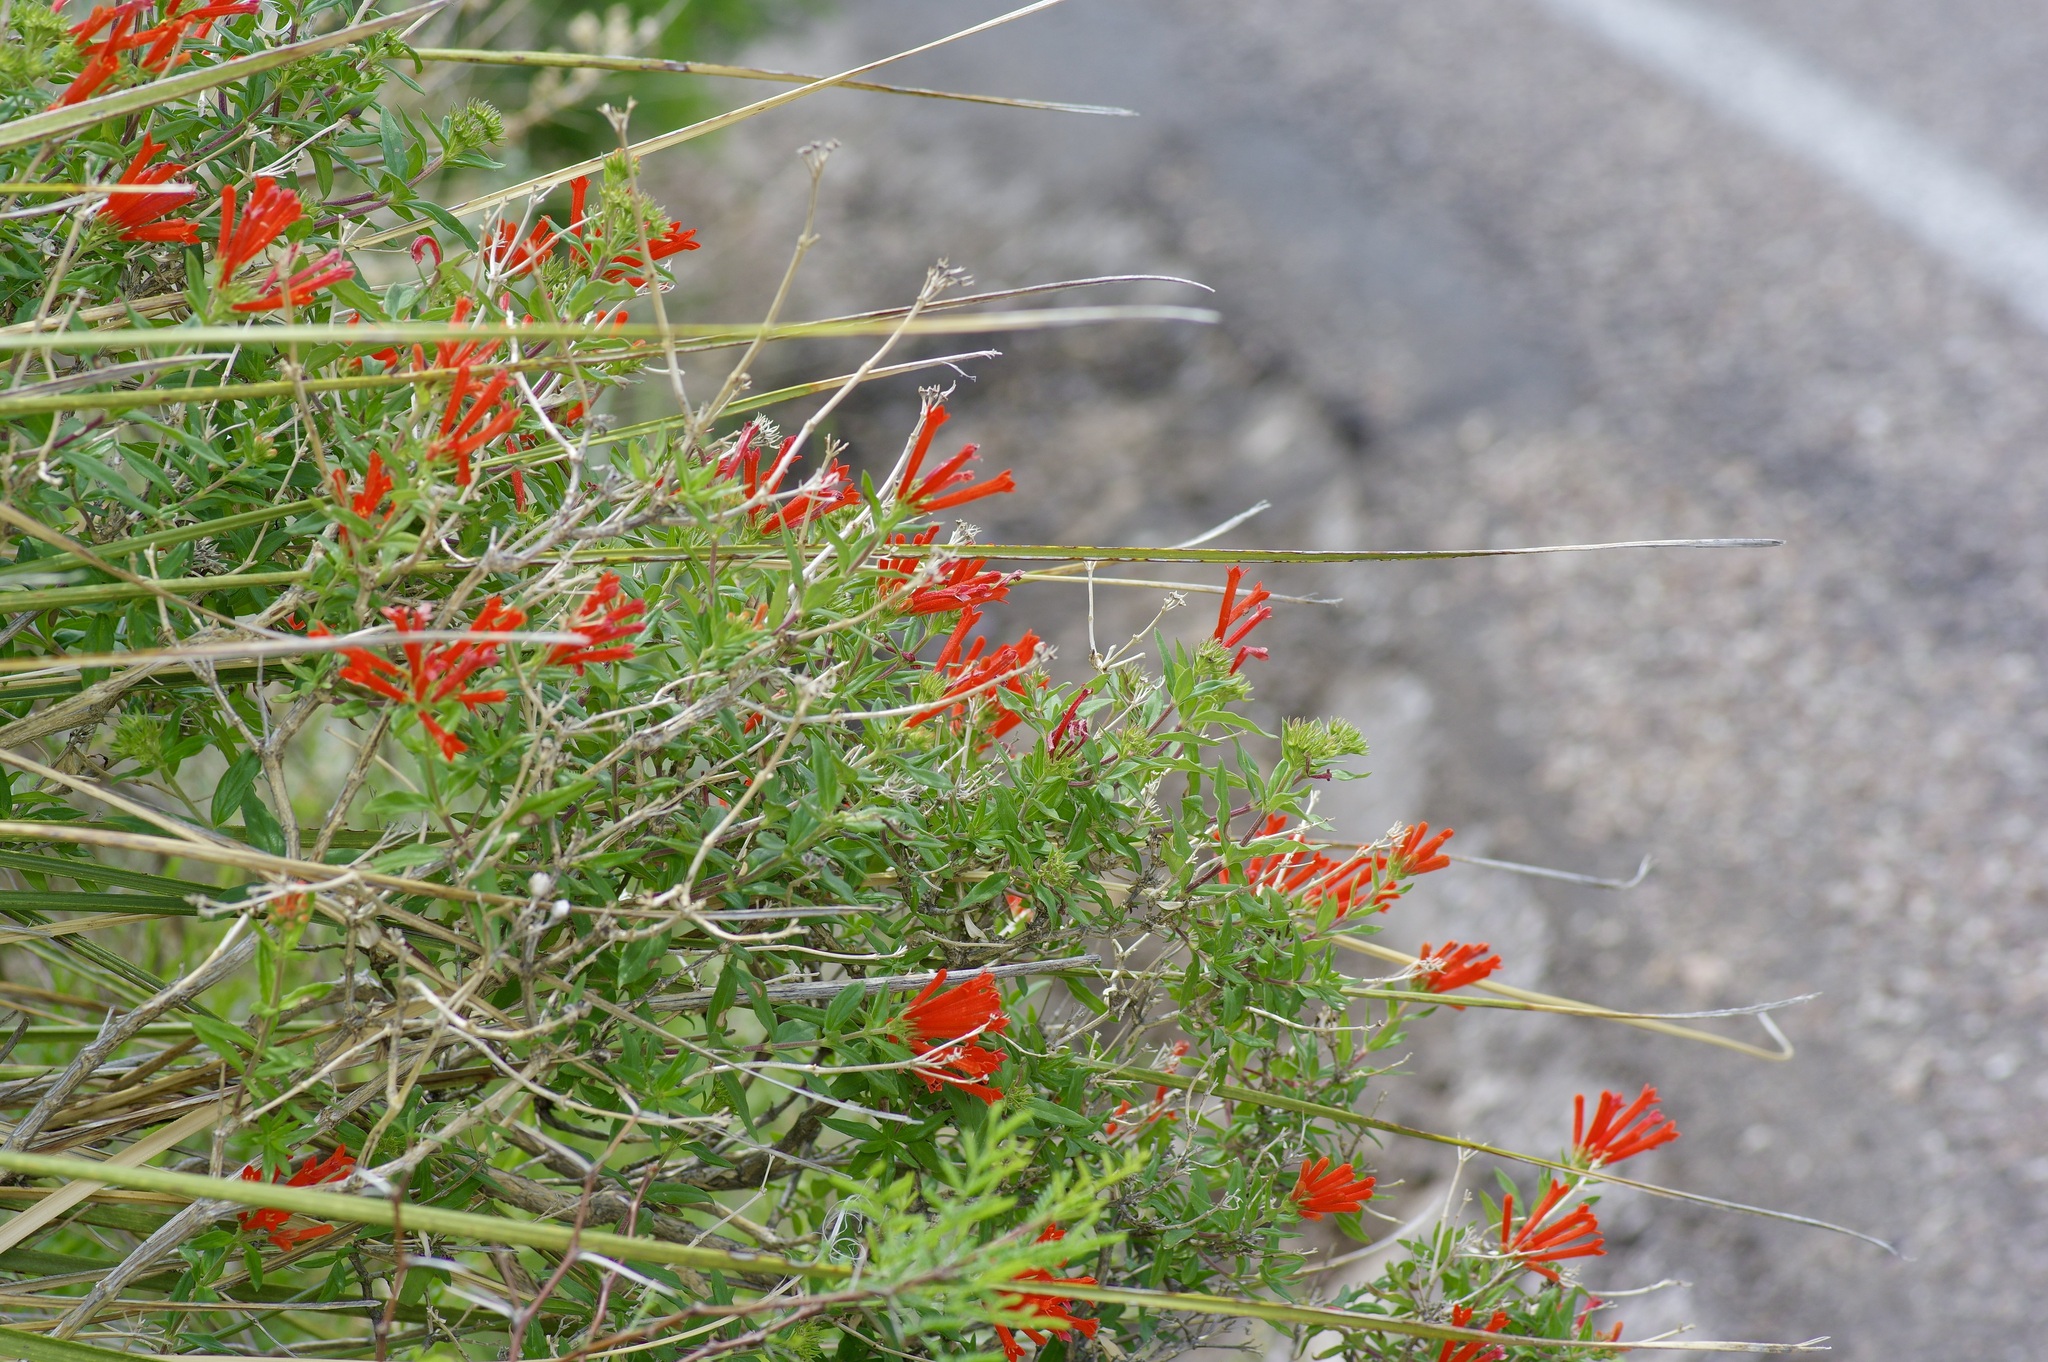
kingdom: Plantae
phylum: Tracheophyta
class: Magnoliopsida
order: Gentianales
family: Rubiaceae
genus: Bouvardia
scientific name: Bouvardia ternifolia
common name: Scarlet bouvardia
